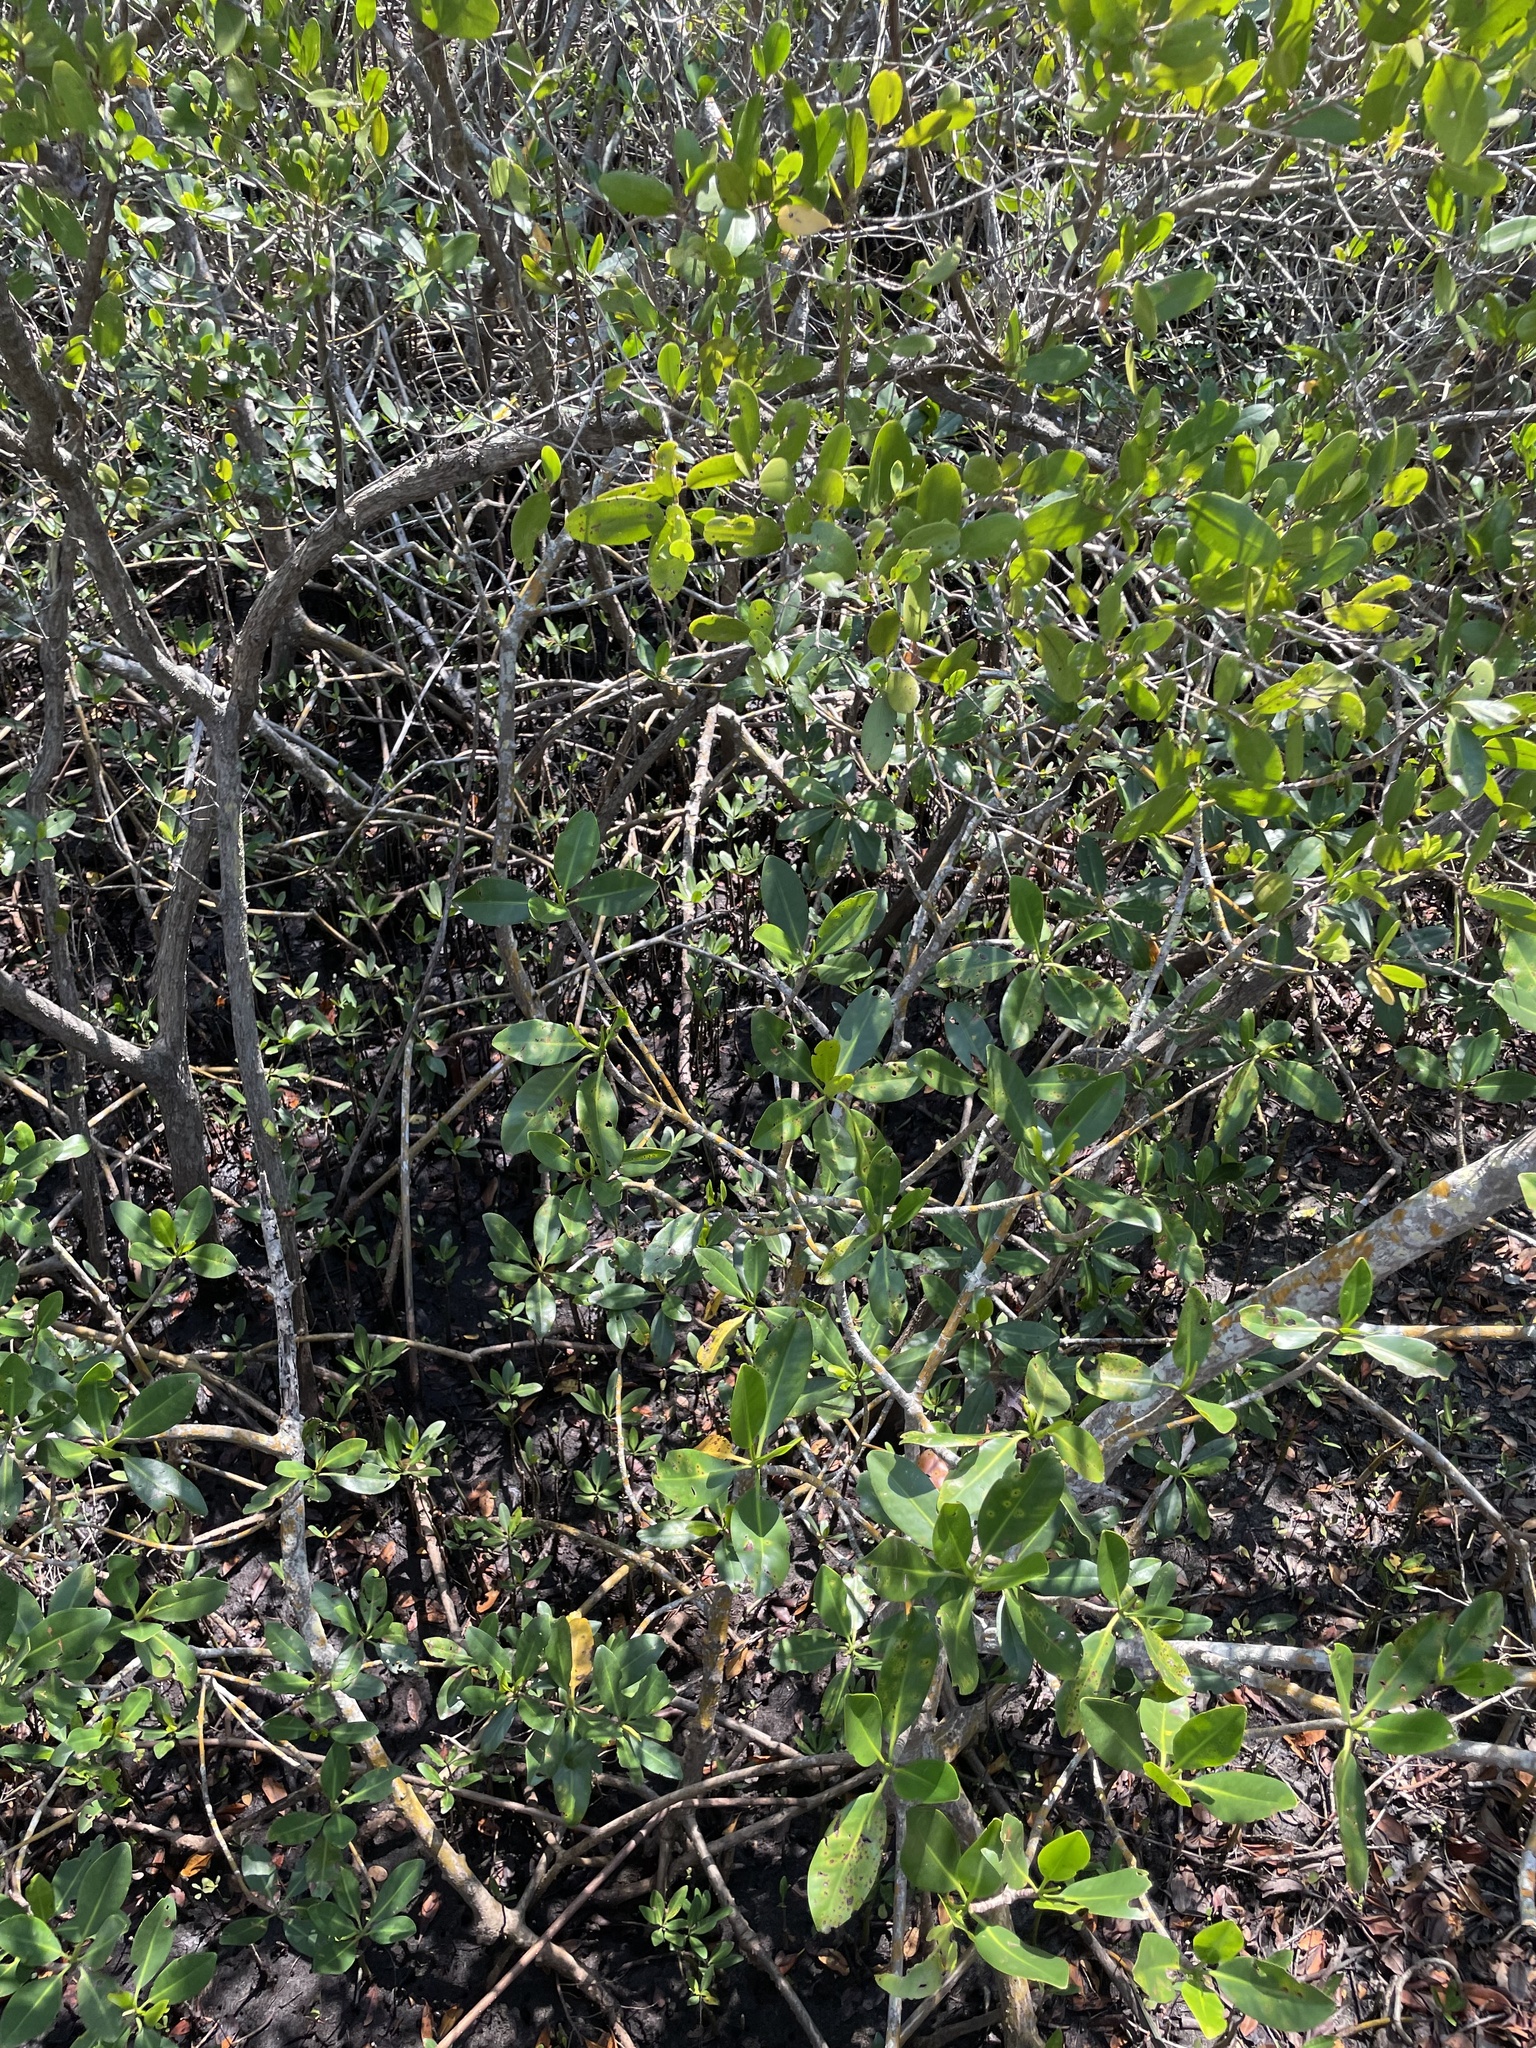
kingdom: Plantae
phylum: Tracheophyta
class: Magnoliopsida
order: Malpighiales
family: Rhizophoraceae
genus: Rhizophora
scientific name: Rhizophora mangle
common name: Red mangrove
